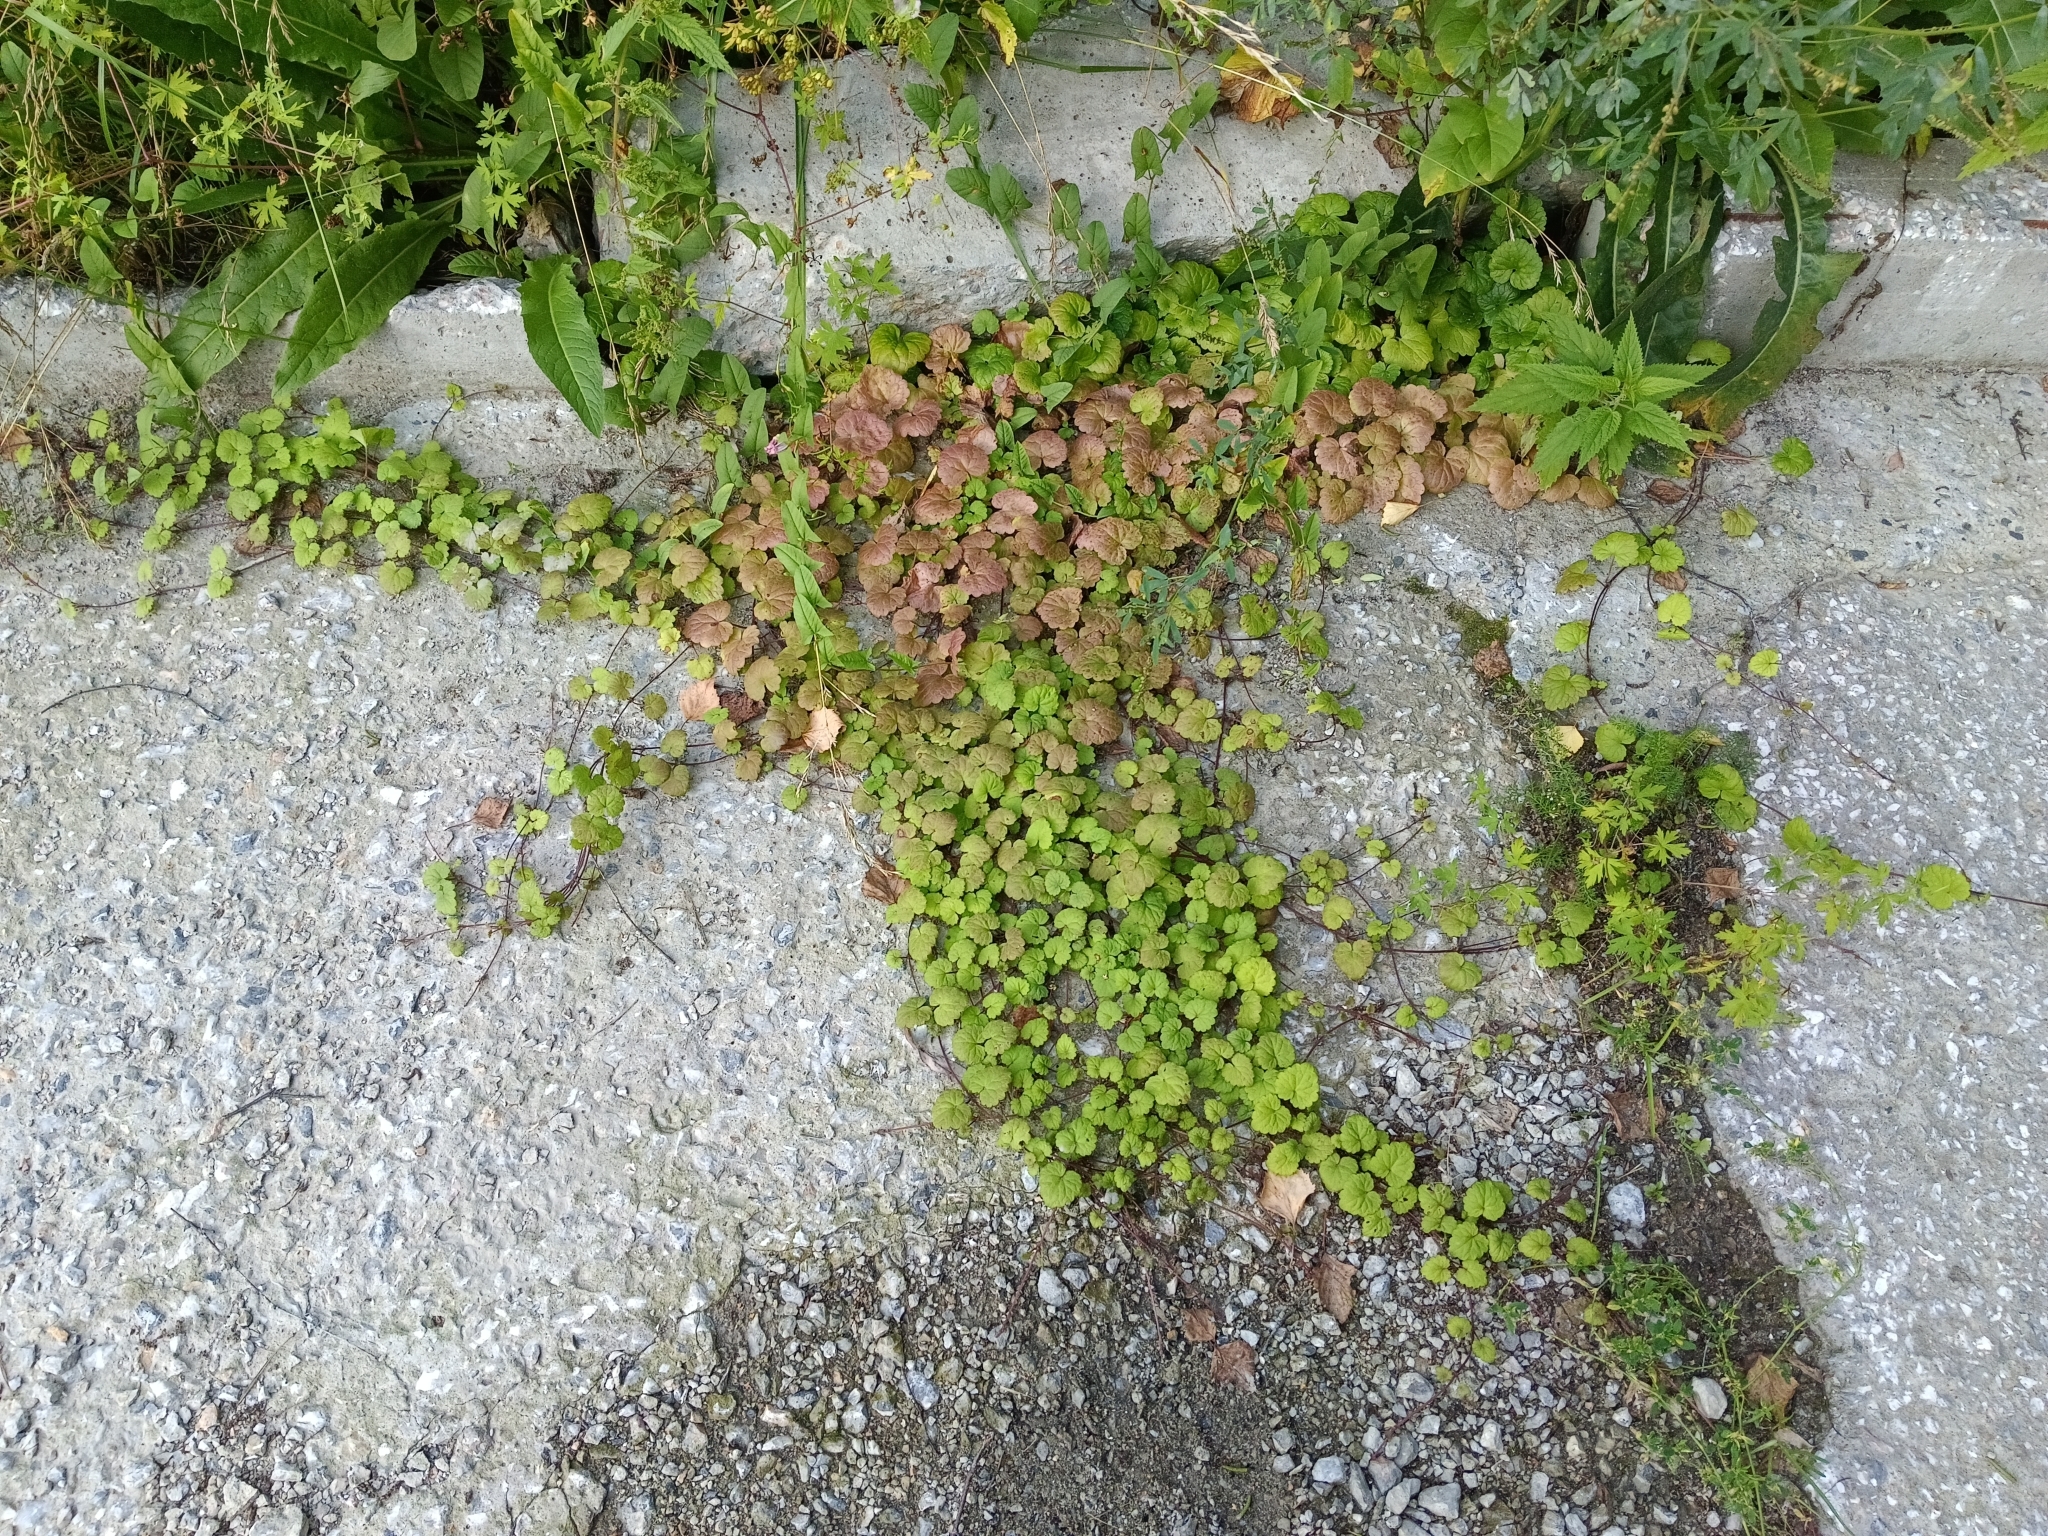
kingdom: Plantae
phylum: Tracheophyta
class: Magnoliopsida
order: Lamiales
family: Lamiaceae
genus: Glechoma
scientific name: Glechoma hederacea
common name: Ground ivy
